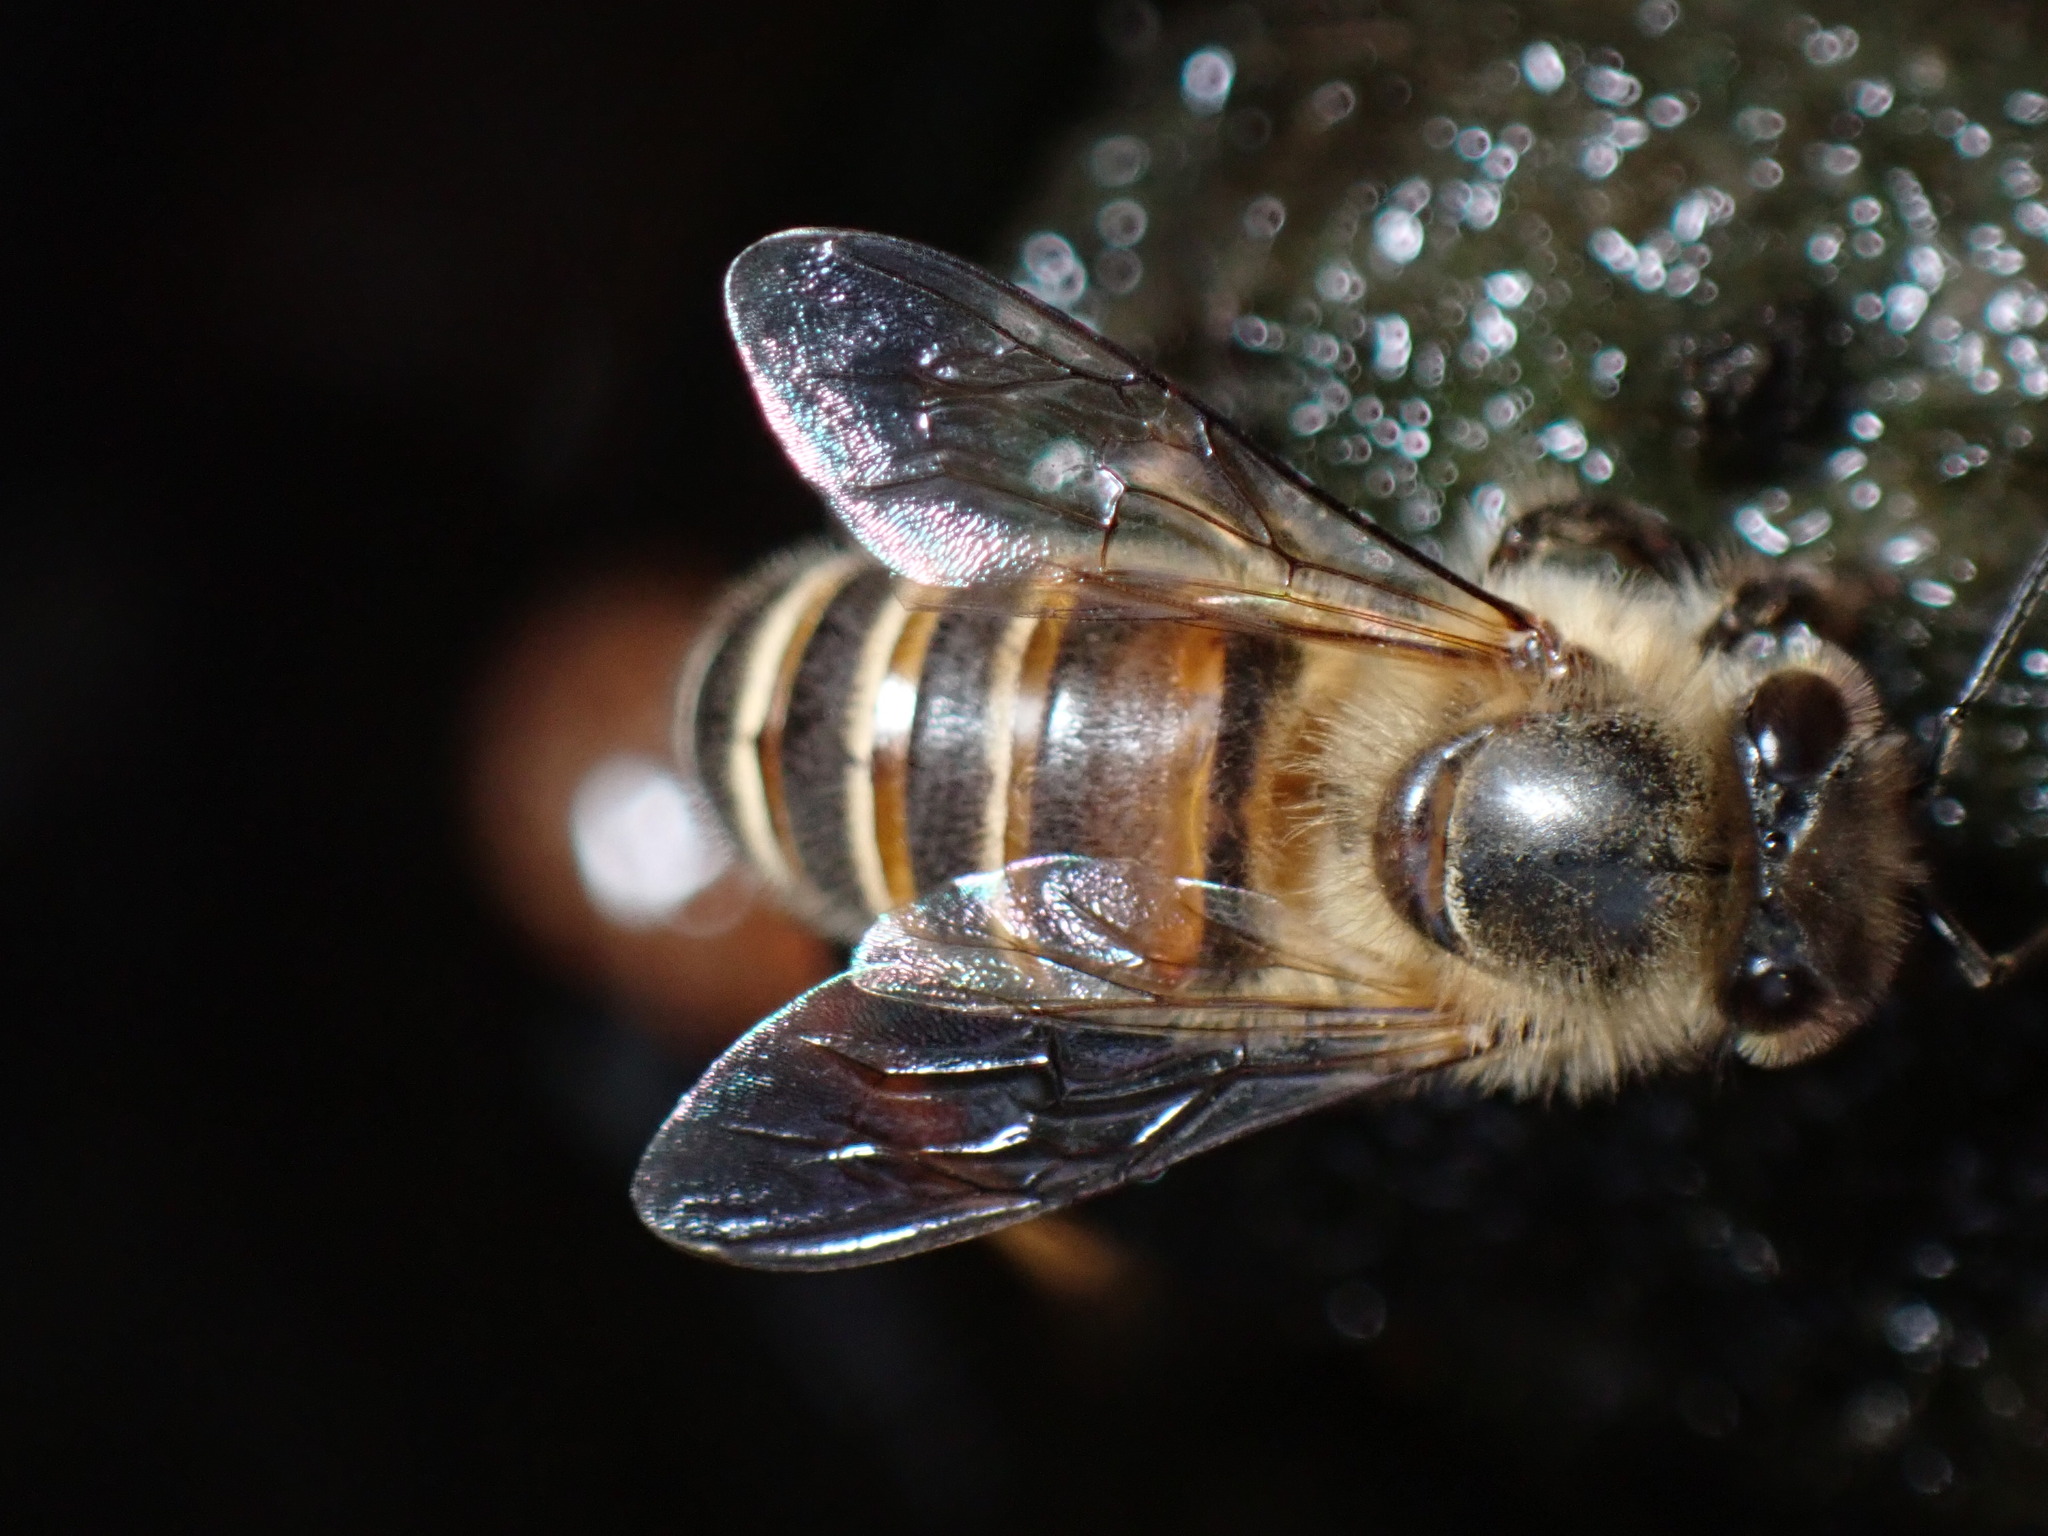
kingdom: Animalia
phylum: Arthropoda
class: Insecta
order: Hymenoptera
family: Apidae
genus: Apis
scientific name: Apis cerana
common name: Honey bee
